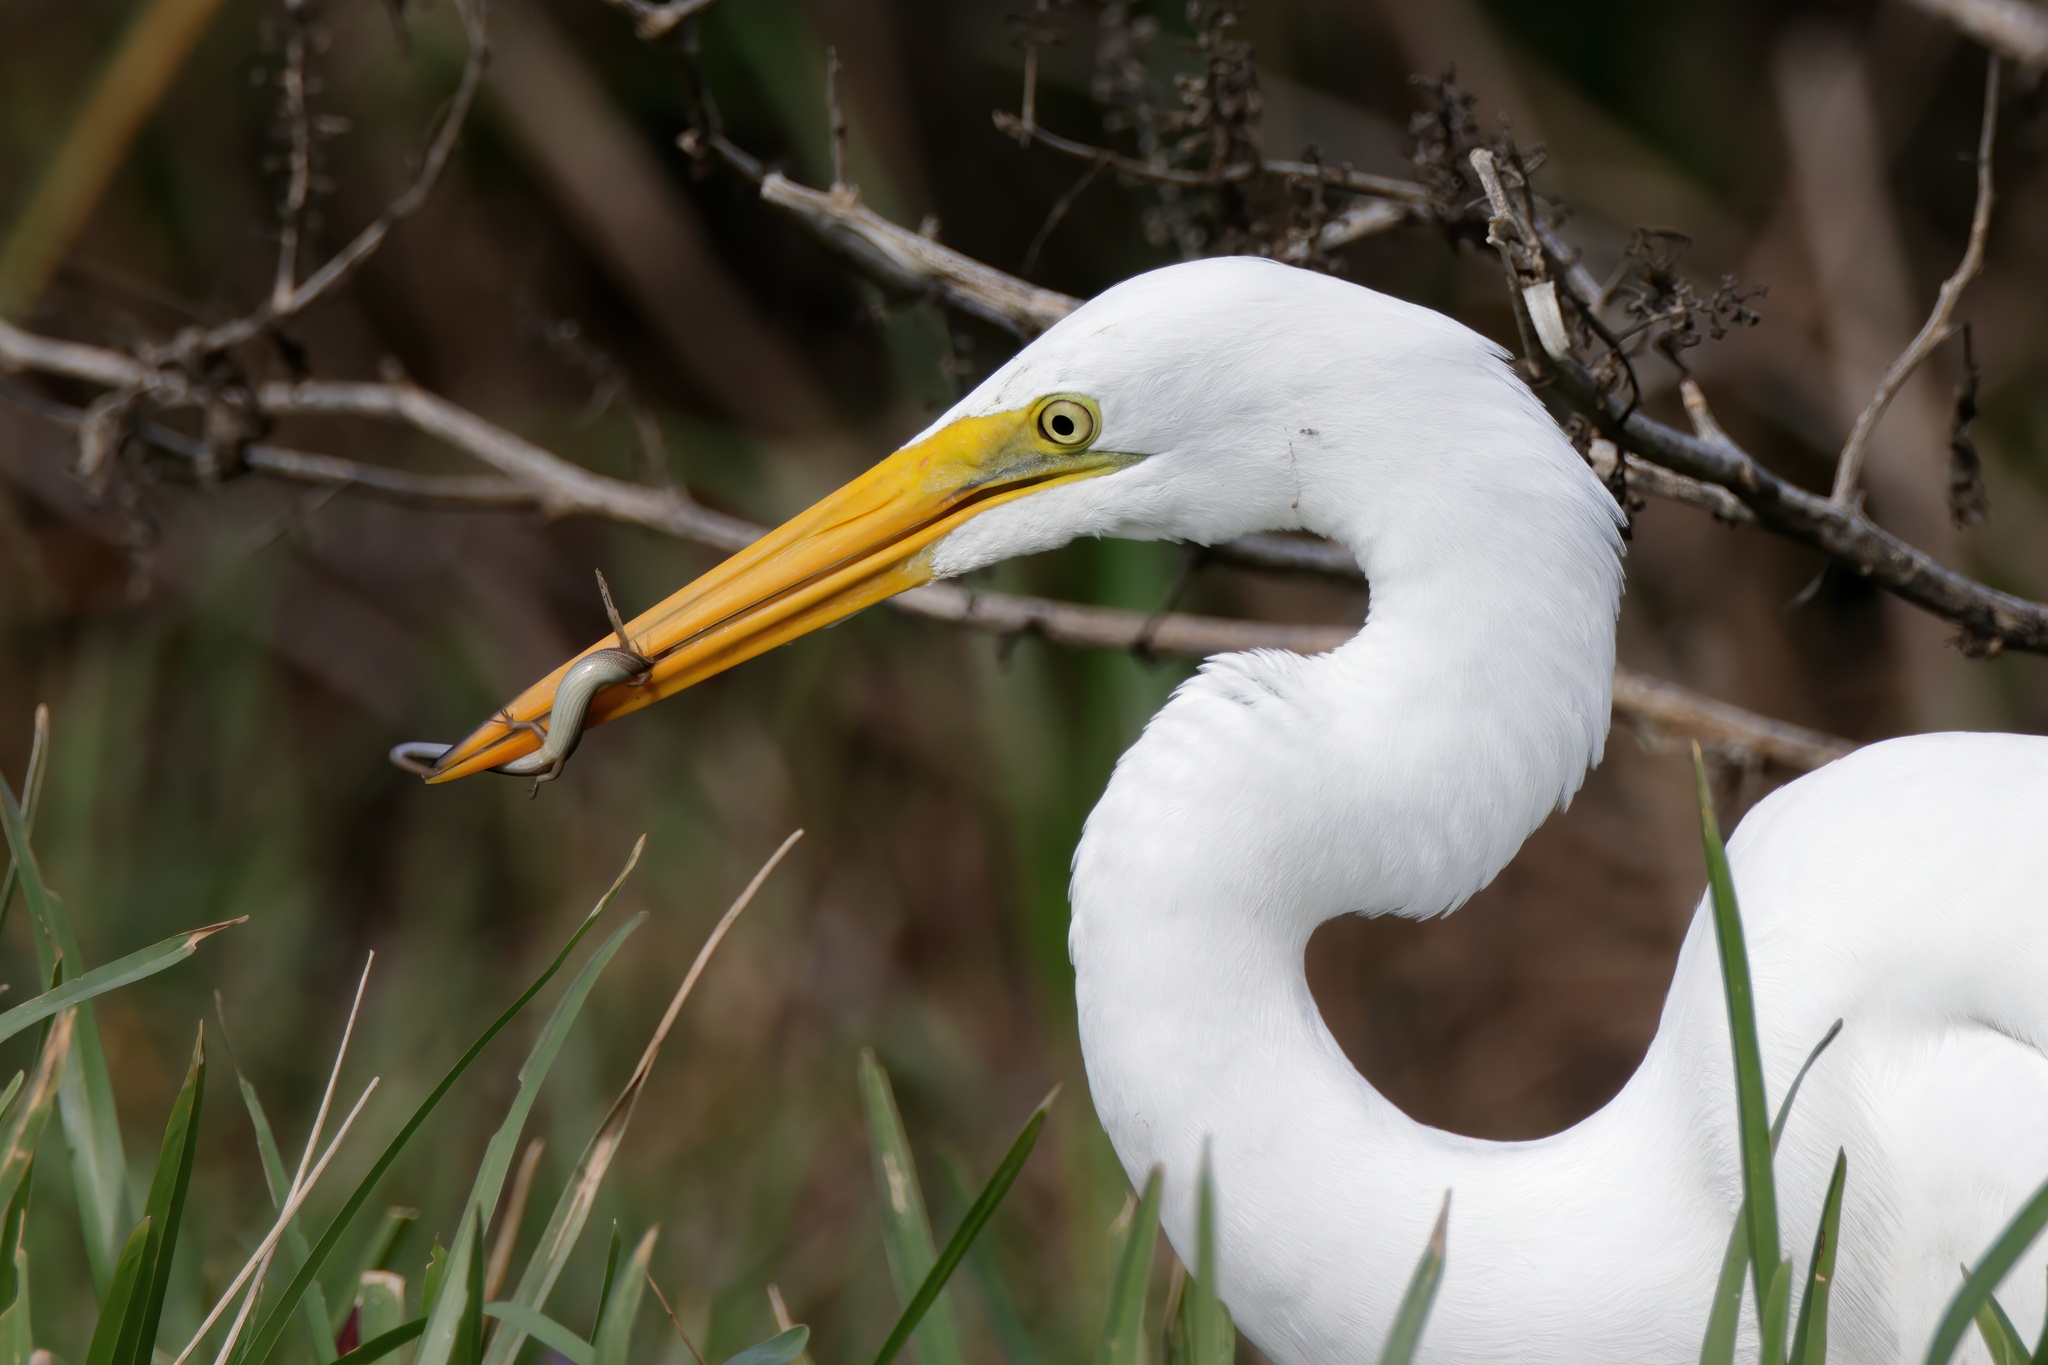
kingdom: Animalia
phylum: Chordata
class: Squamata
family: Scincidae
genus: Scincella
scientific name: Scincella lateralis
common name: Ground skink
